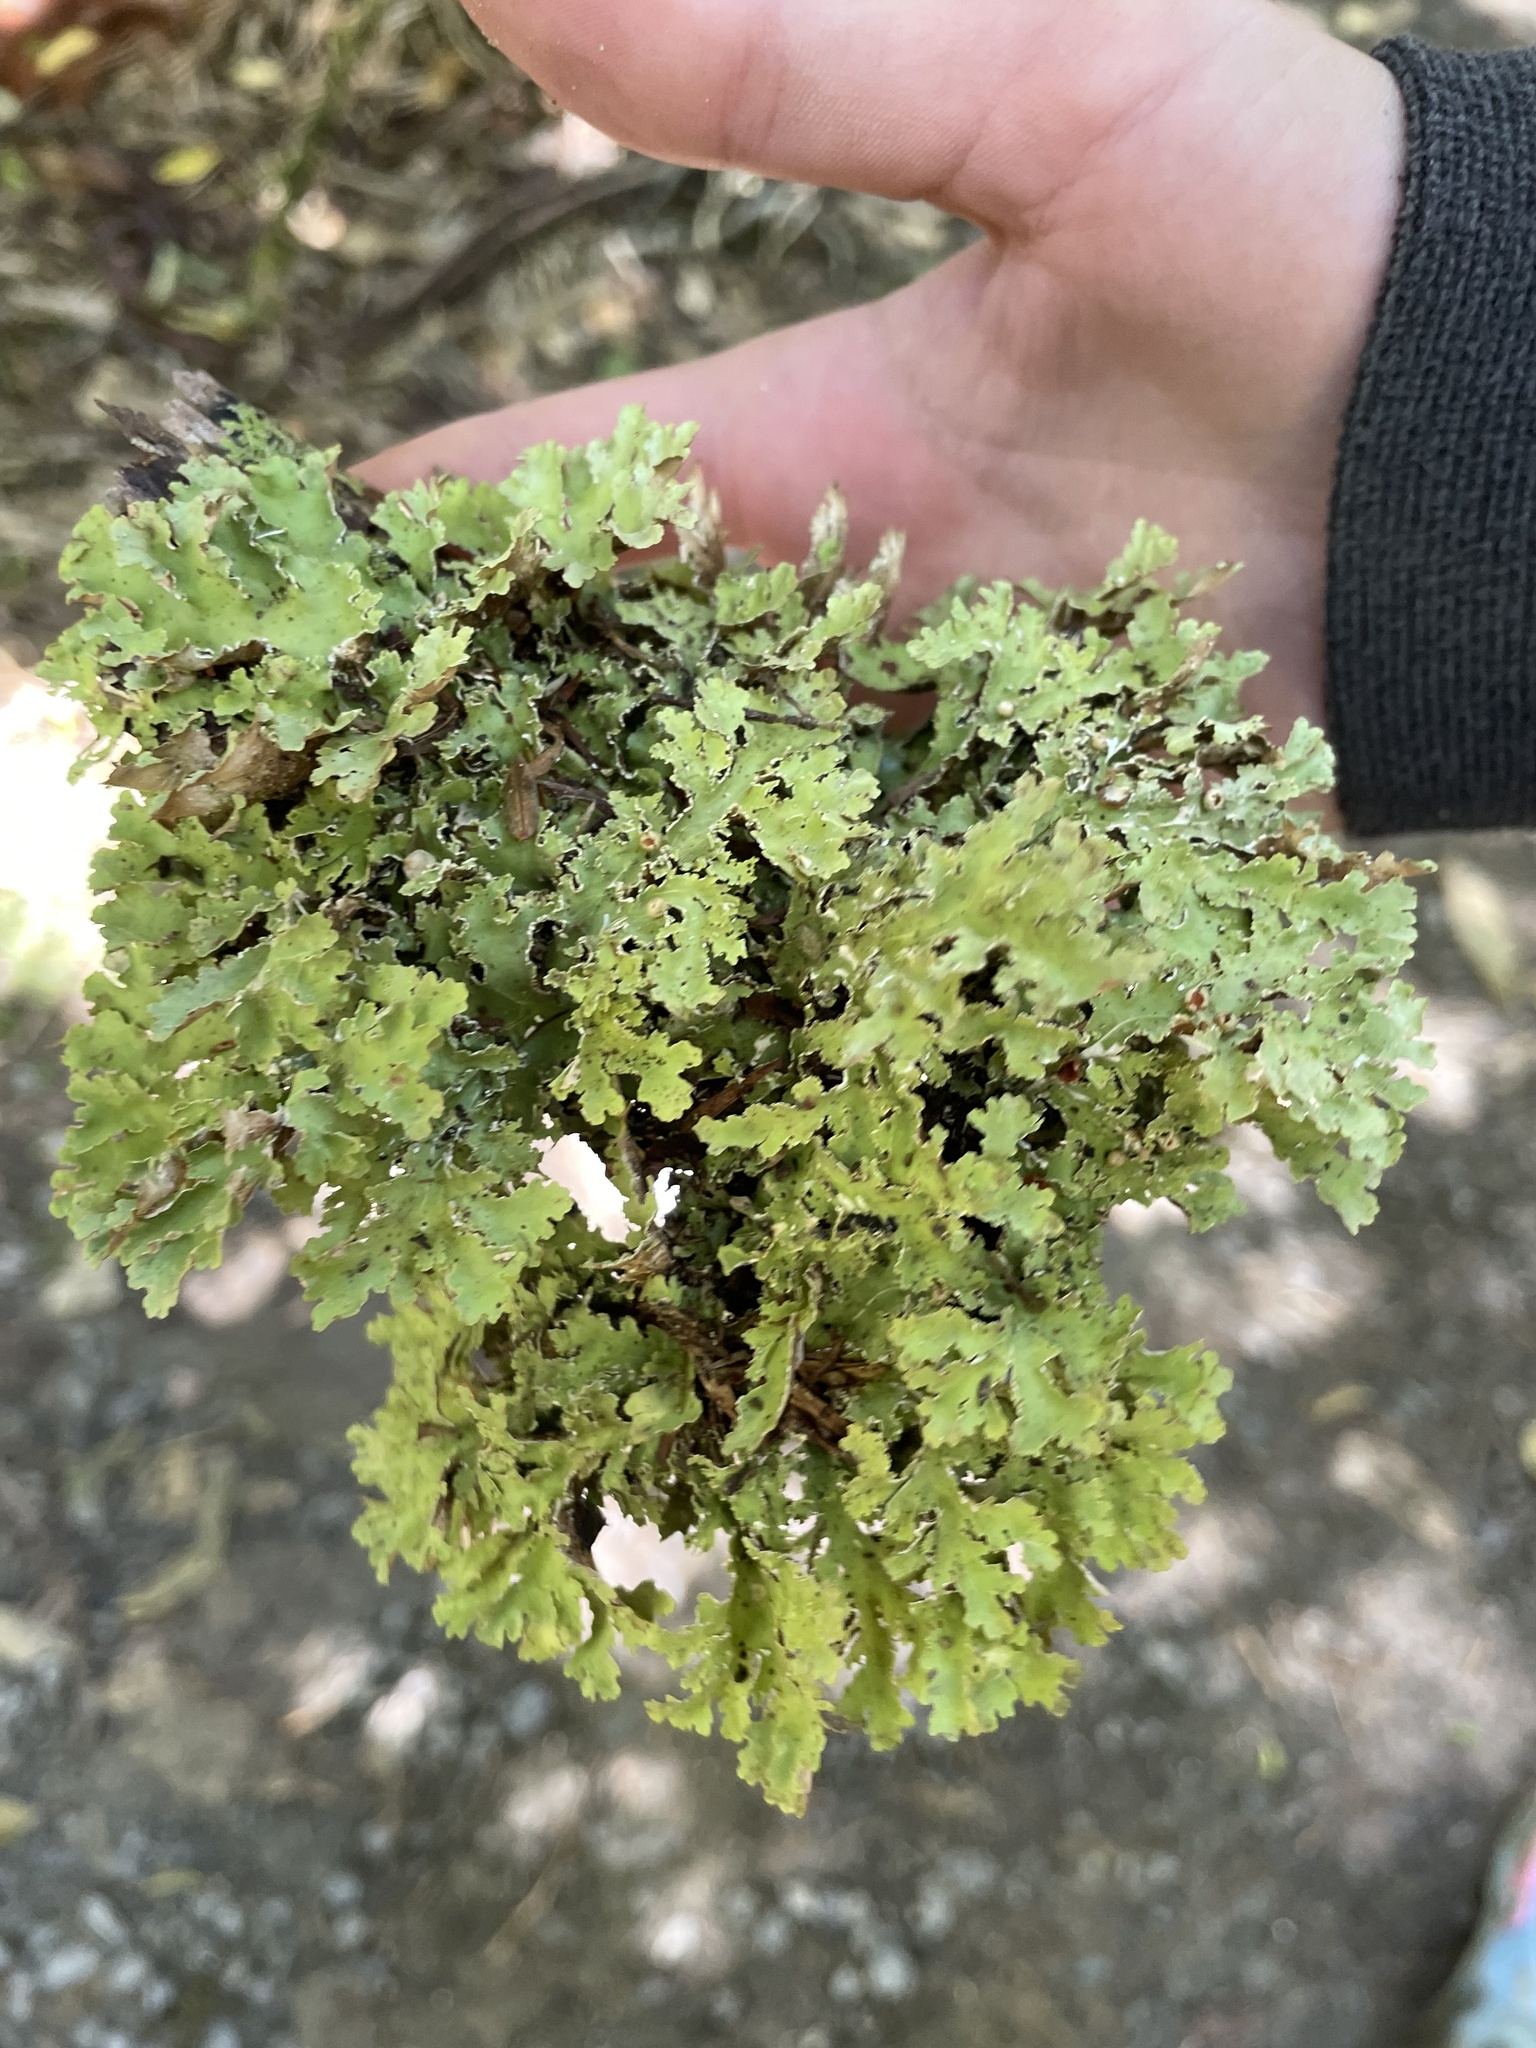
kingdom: Fungi
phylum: Ascomycota
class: Lecanoromycetes
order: Peltigerales
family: Lobariaceae
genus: Pseudocyphellaria
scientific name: Pseudocyphellaria glabra
